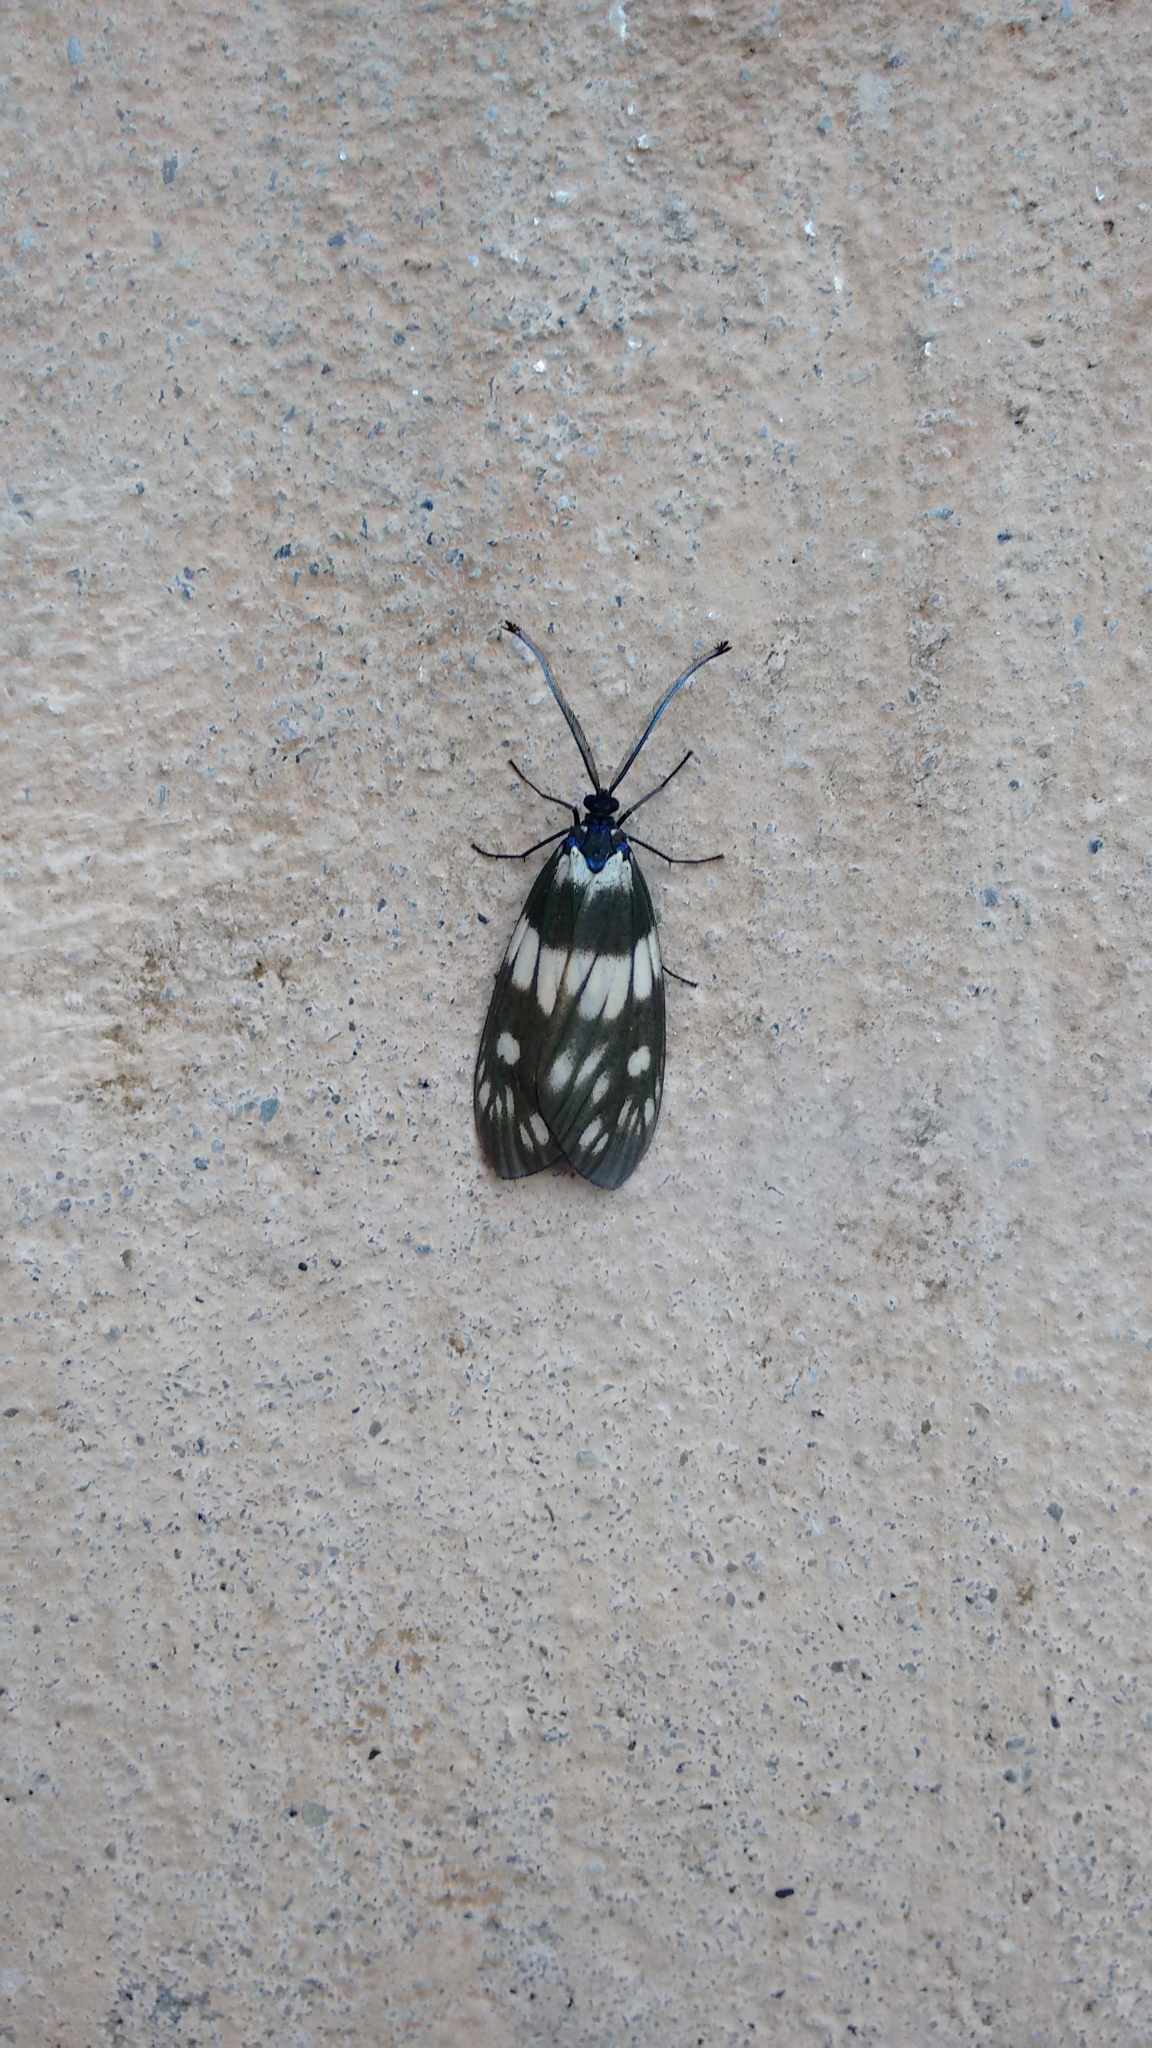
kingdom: Animalia
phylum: Arthropoda
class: Insecta
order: Lepidoptera
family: Zygaenidae
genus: Eterusia
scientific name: Eterusia aedea
